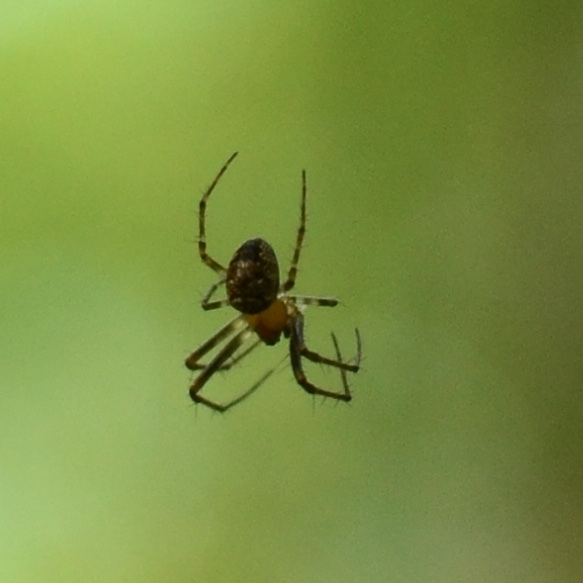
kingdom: Animalia
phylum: Arthropoda
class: Arachnida
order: Araneae
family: Araneidae
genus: Zilla
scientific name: Zilla diodia
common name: Zilla diodia
